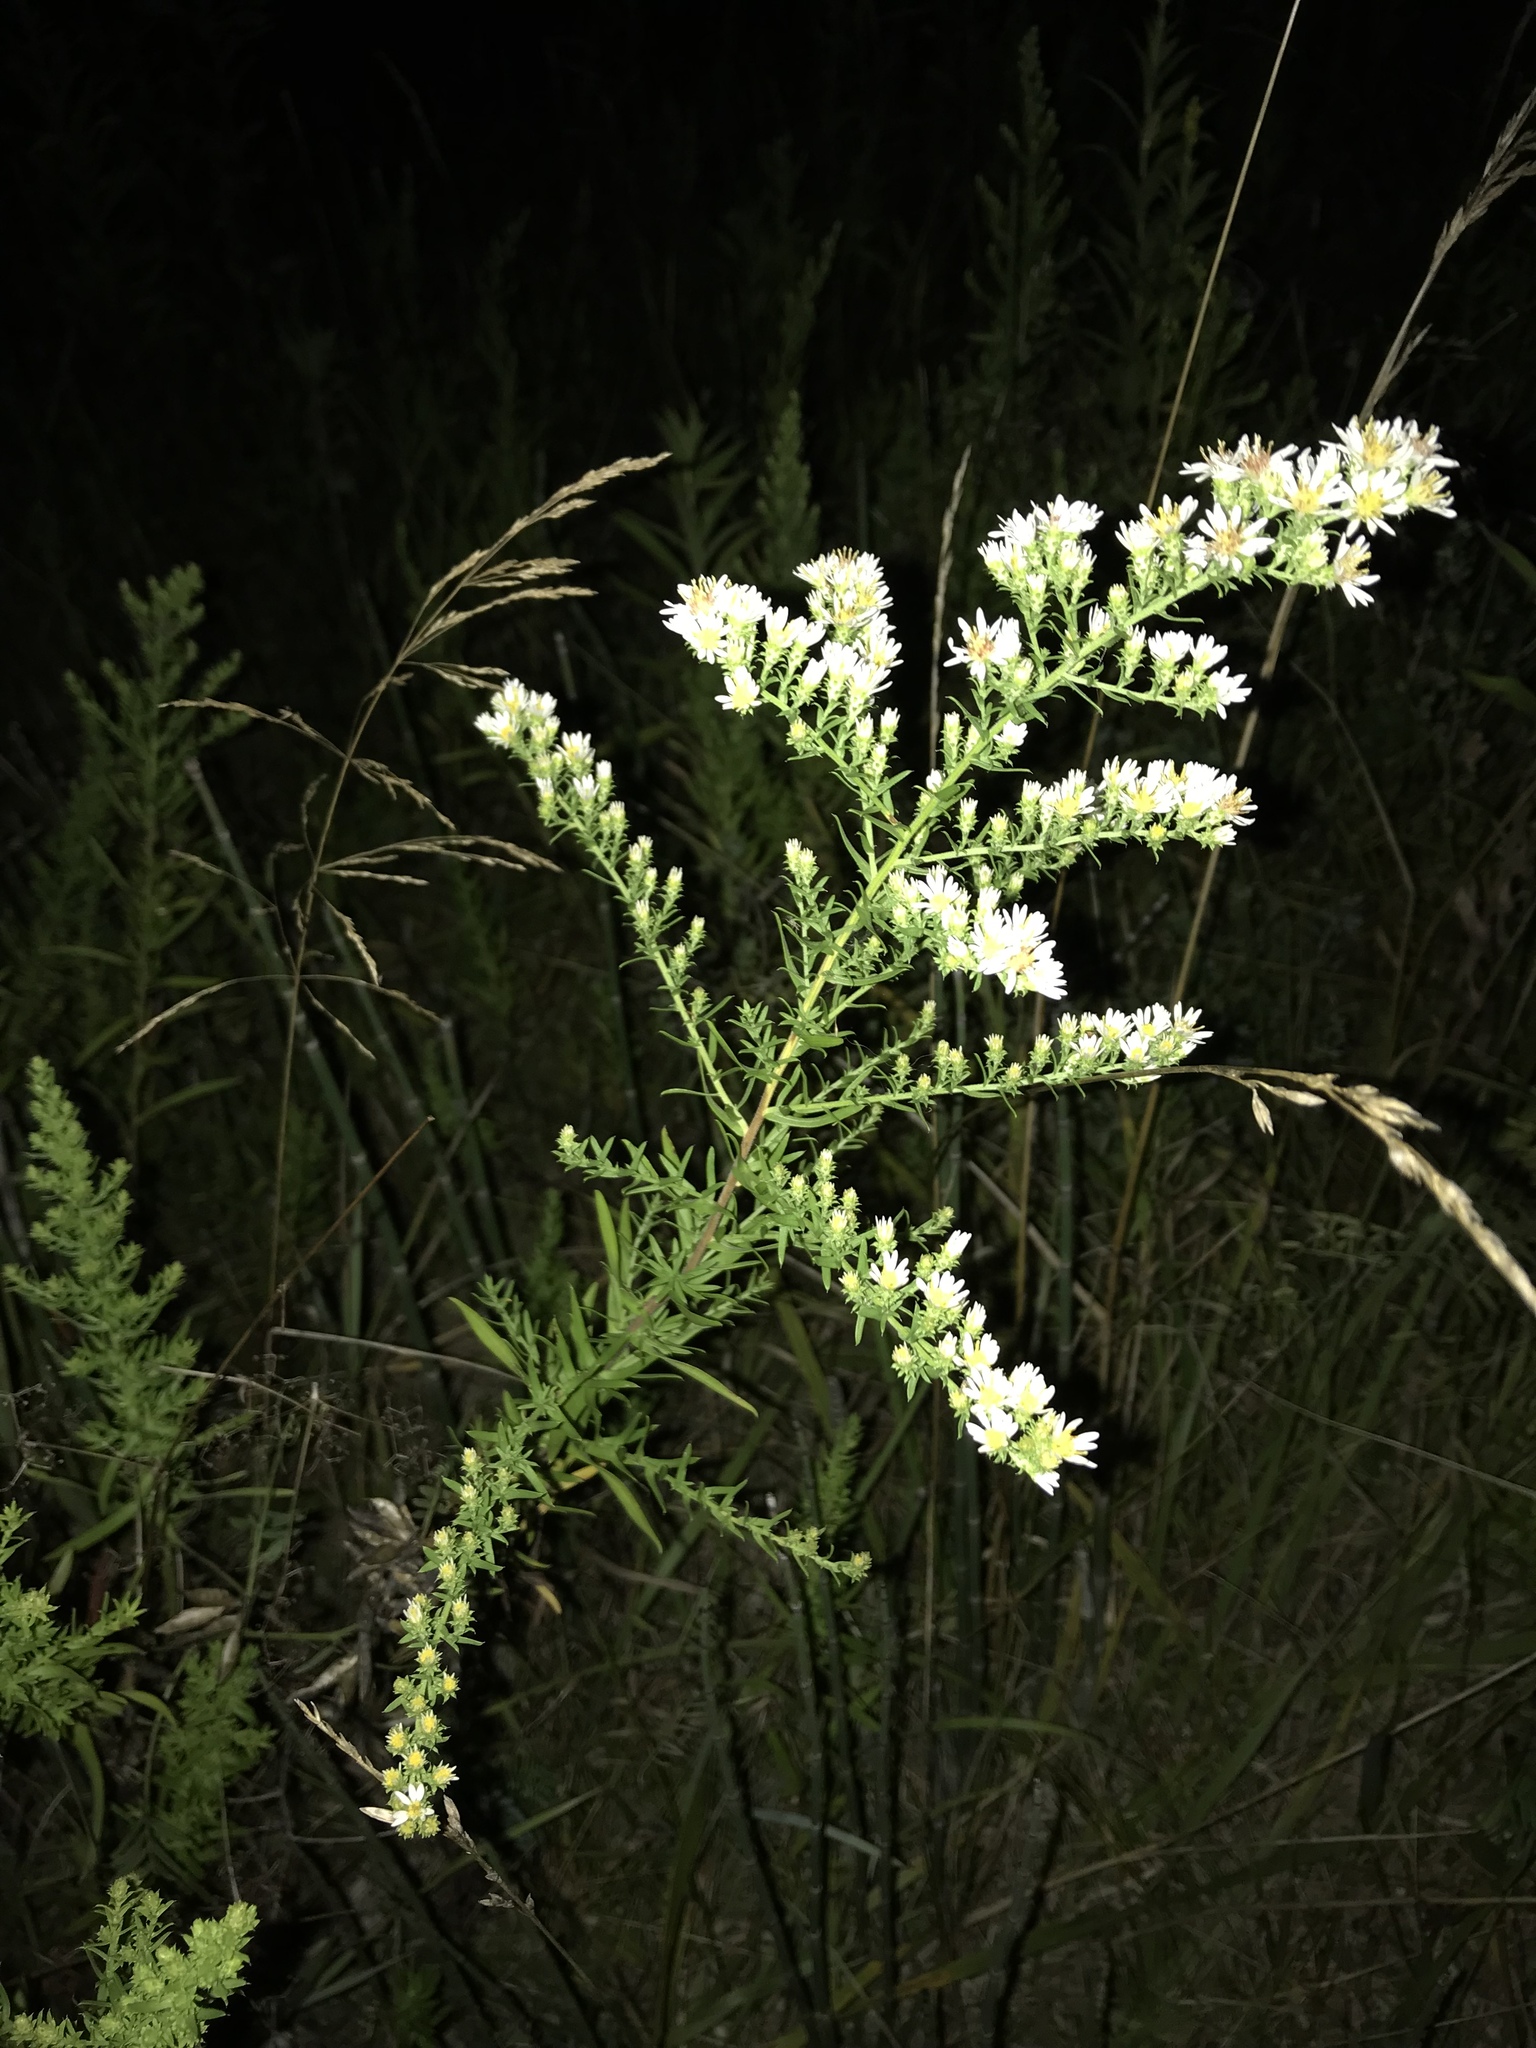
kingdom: Plantae
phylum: Tracheophyta
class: Magnoliopsida
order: Asterales
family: Asteraceae
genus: Symphyotrichum
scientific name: Symphyotrichum ericoides
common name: Heath aster
